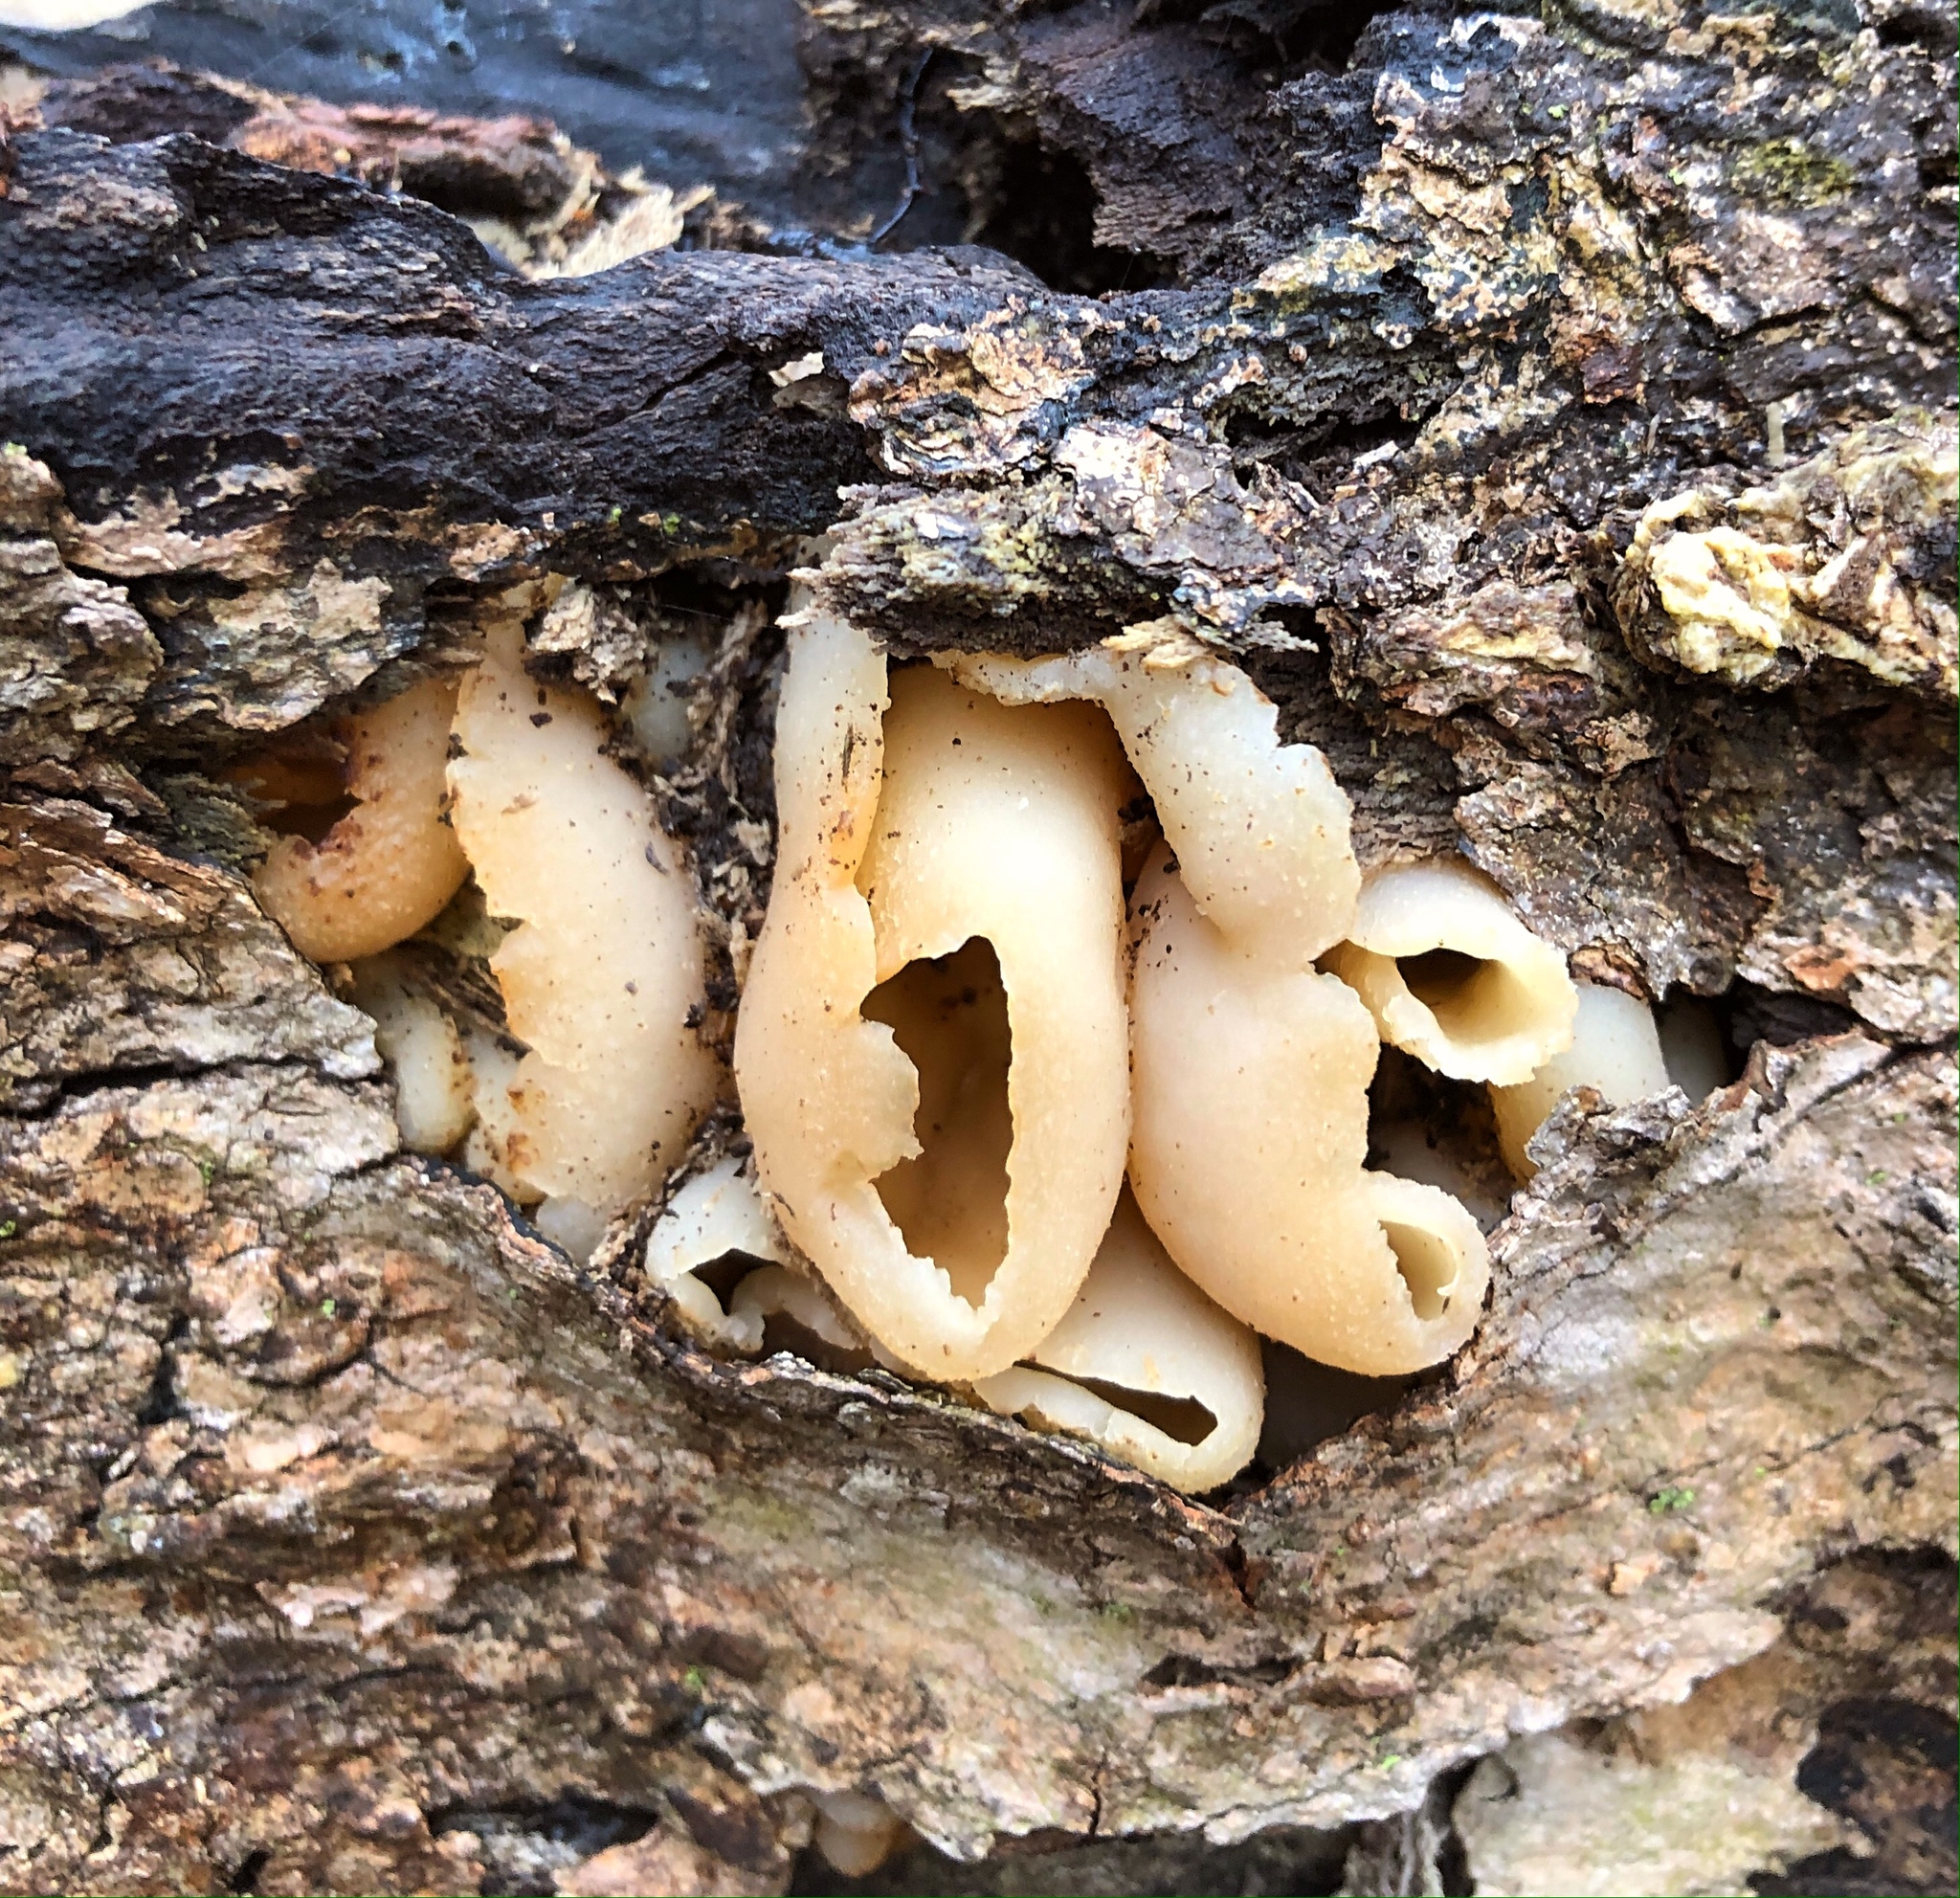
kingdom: Fungi
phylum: Ascomycota
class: Pezizomycetes
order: Pezizales
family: Pezizaceae
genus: Peziza
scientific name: Peziza varia
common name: Layered cup
